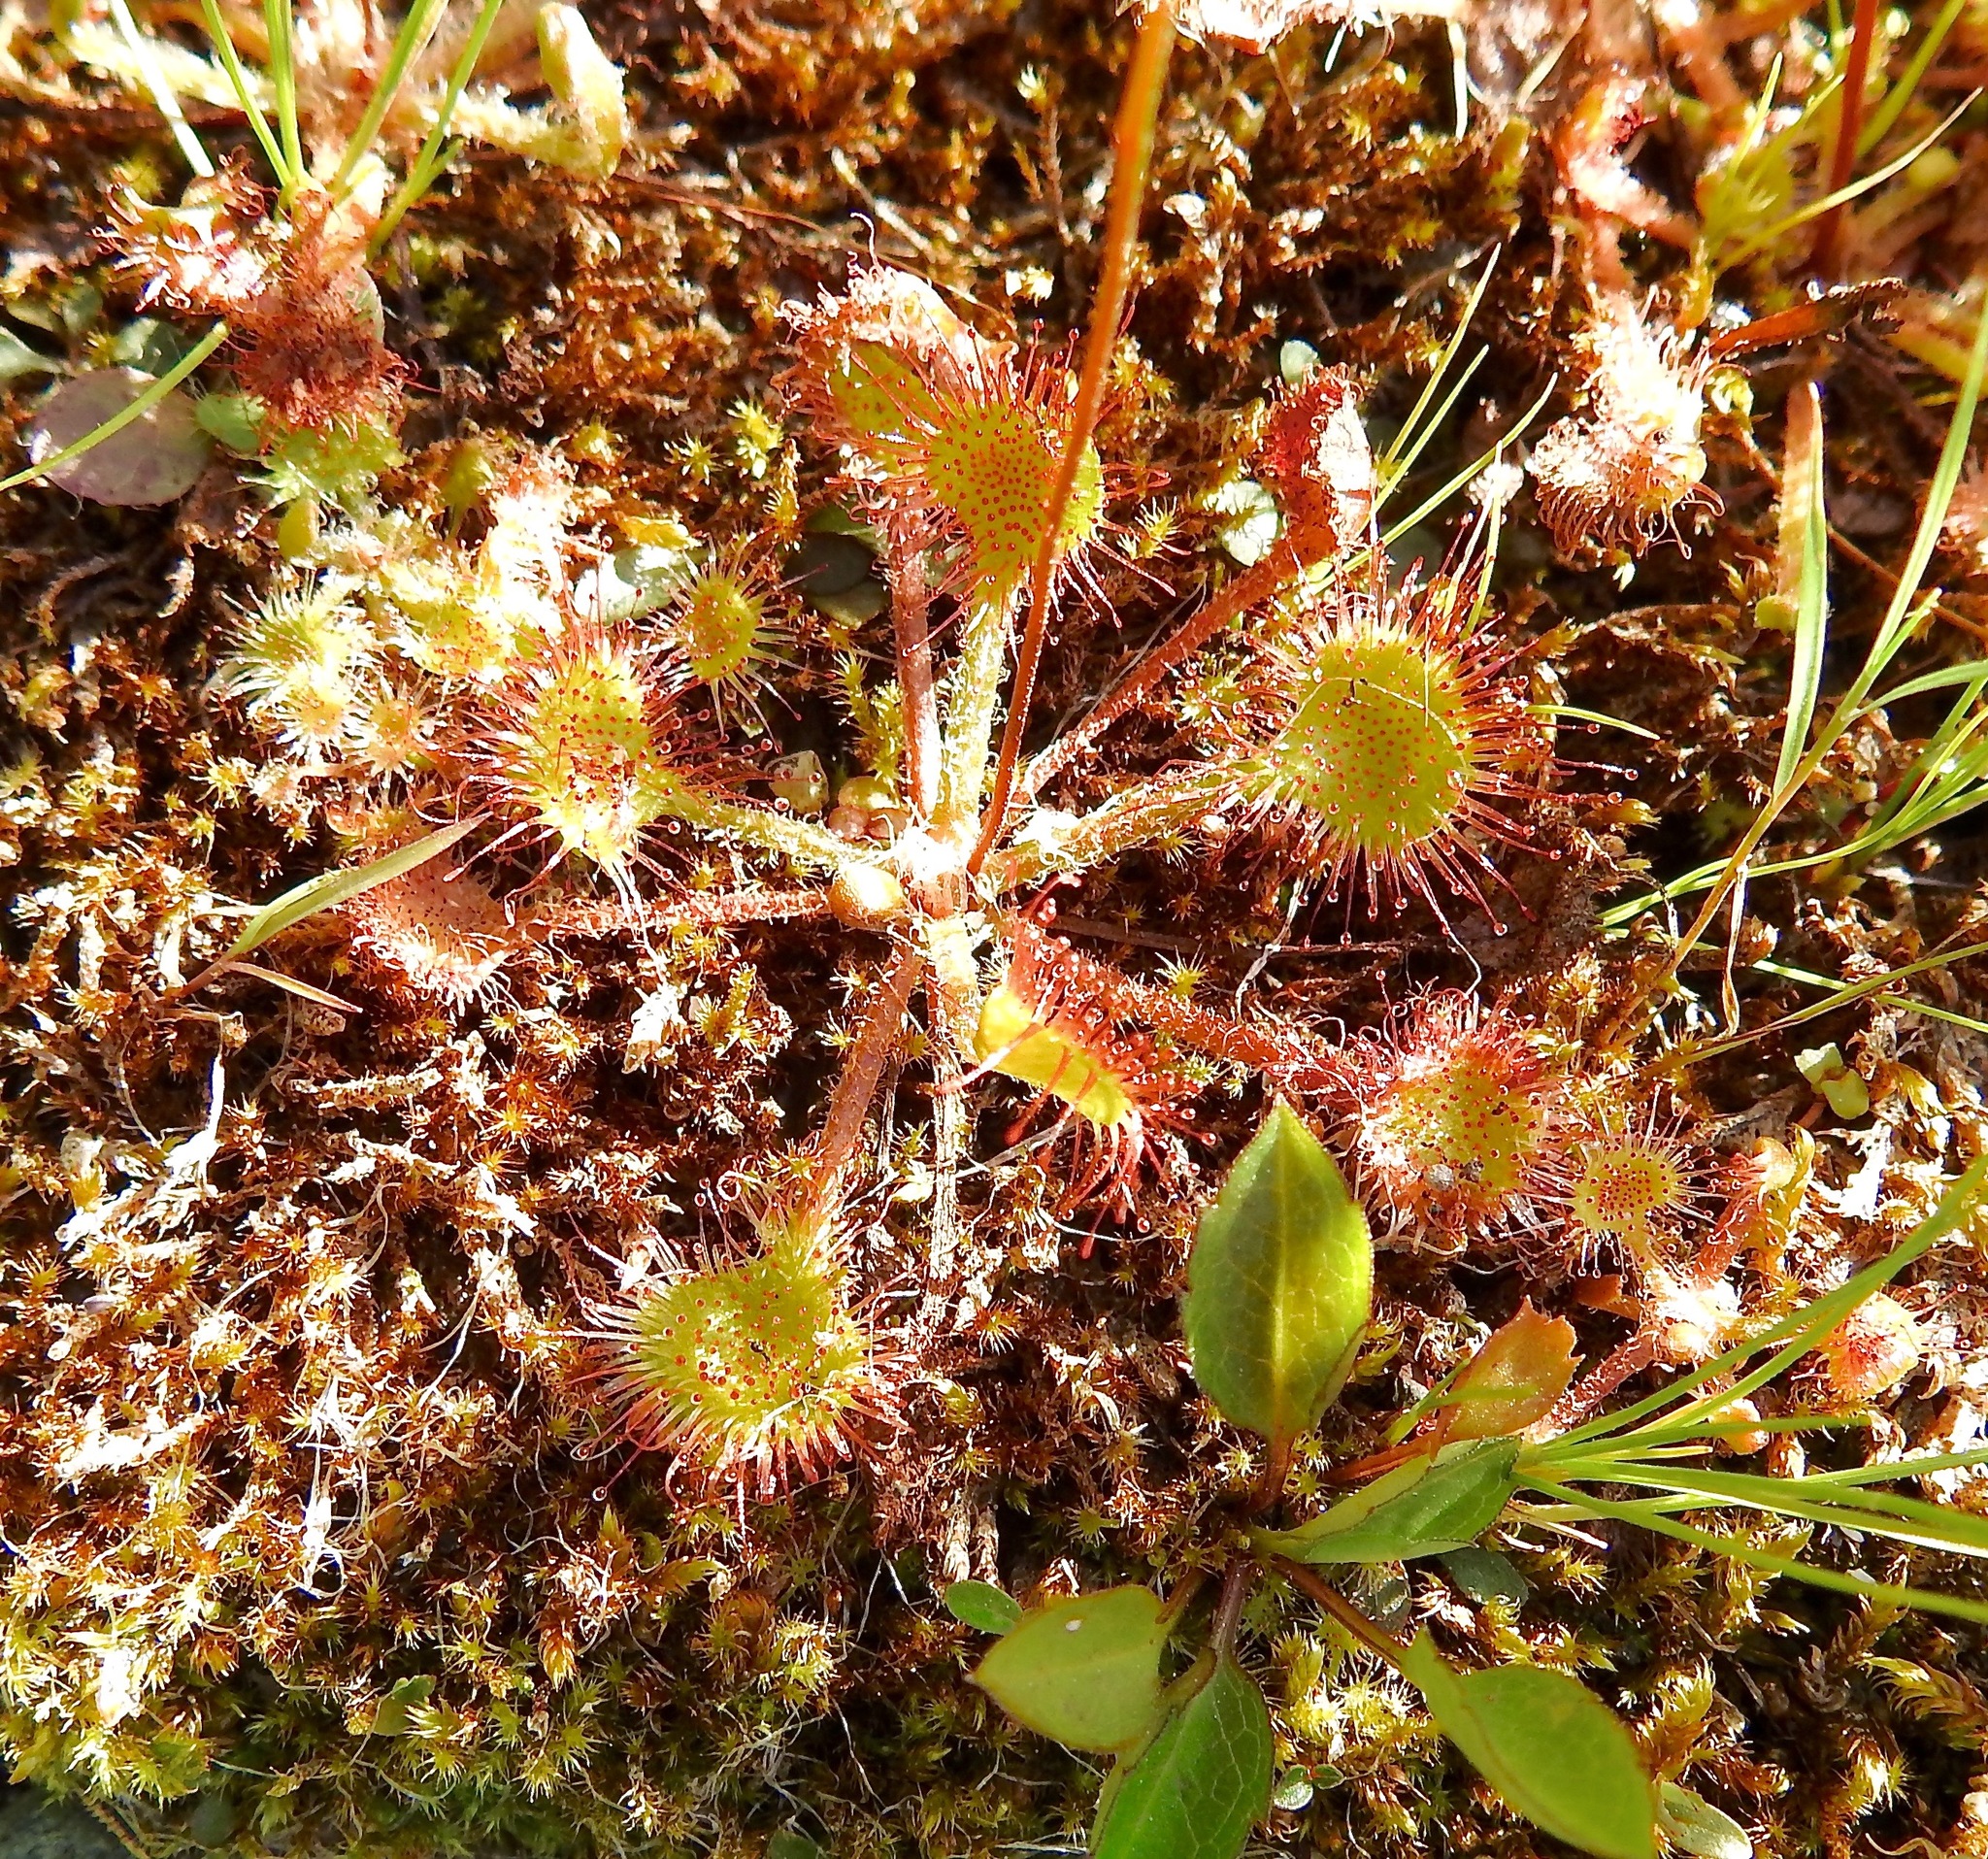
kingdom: Plantae
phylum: Tracheophyta
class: Magnoliopsida
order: Caryophyllales
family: Droseraceae
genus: Drosera
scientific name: Drosera rotundifolia
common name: Round-leaved sundew
